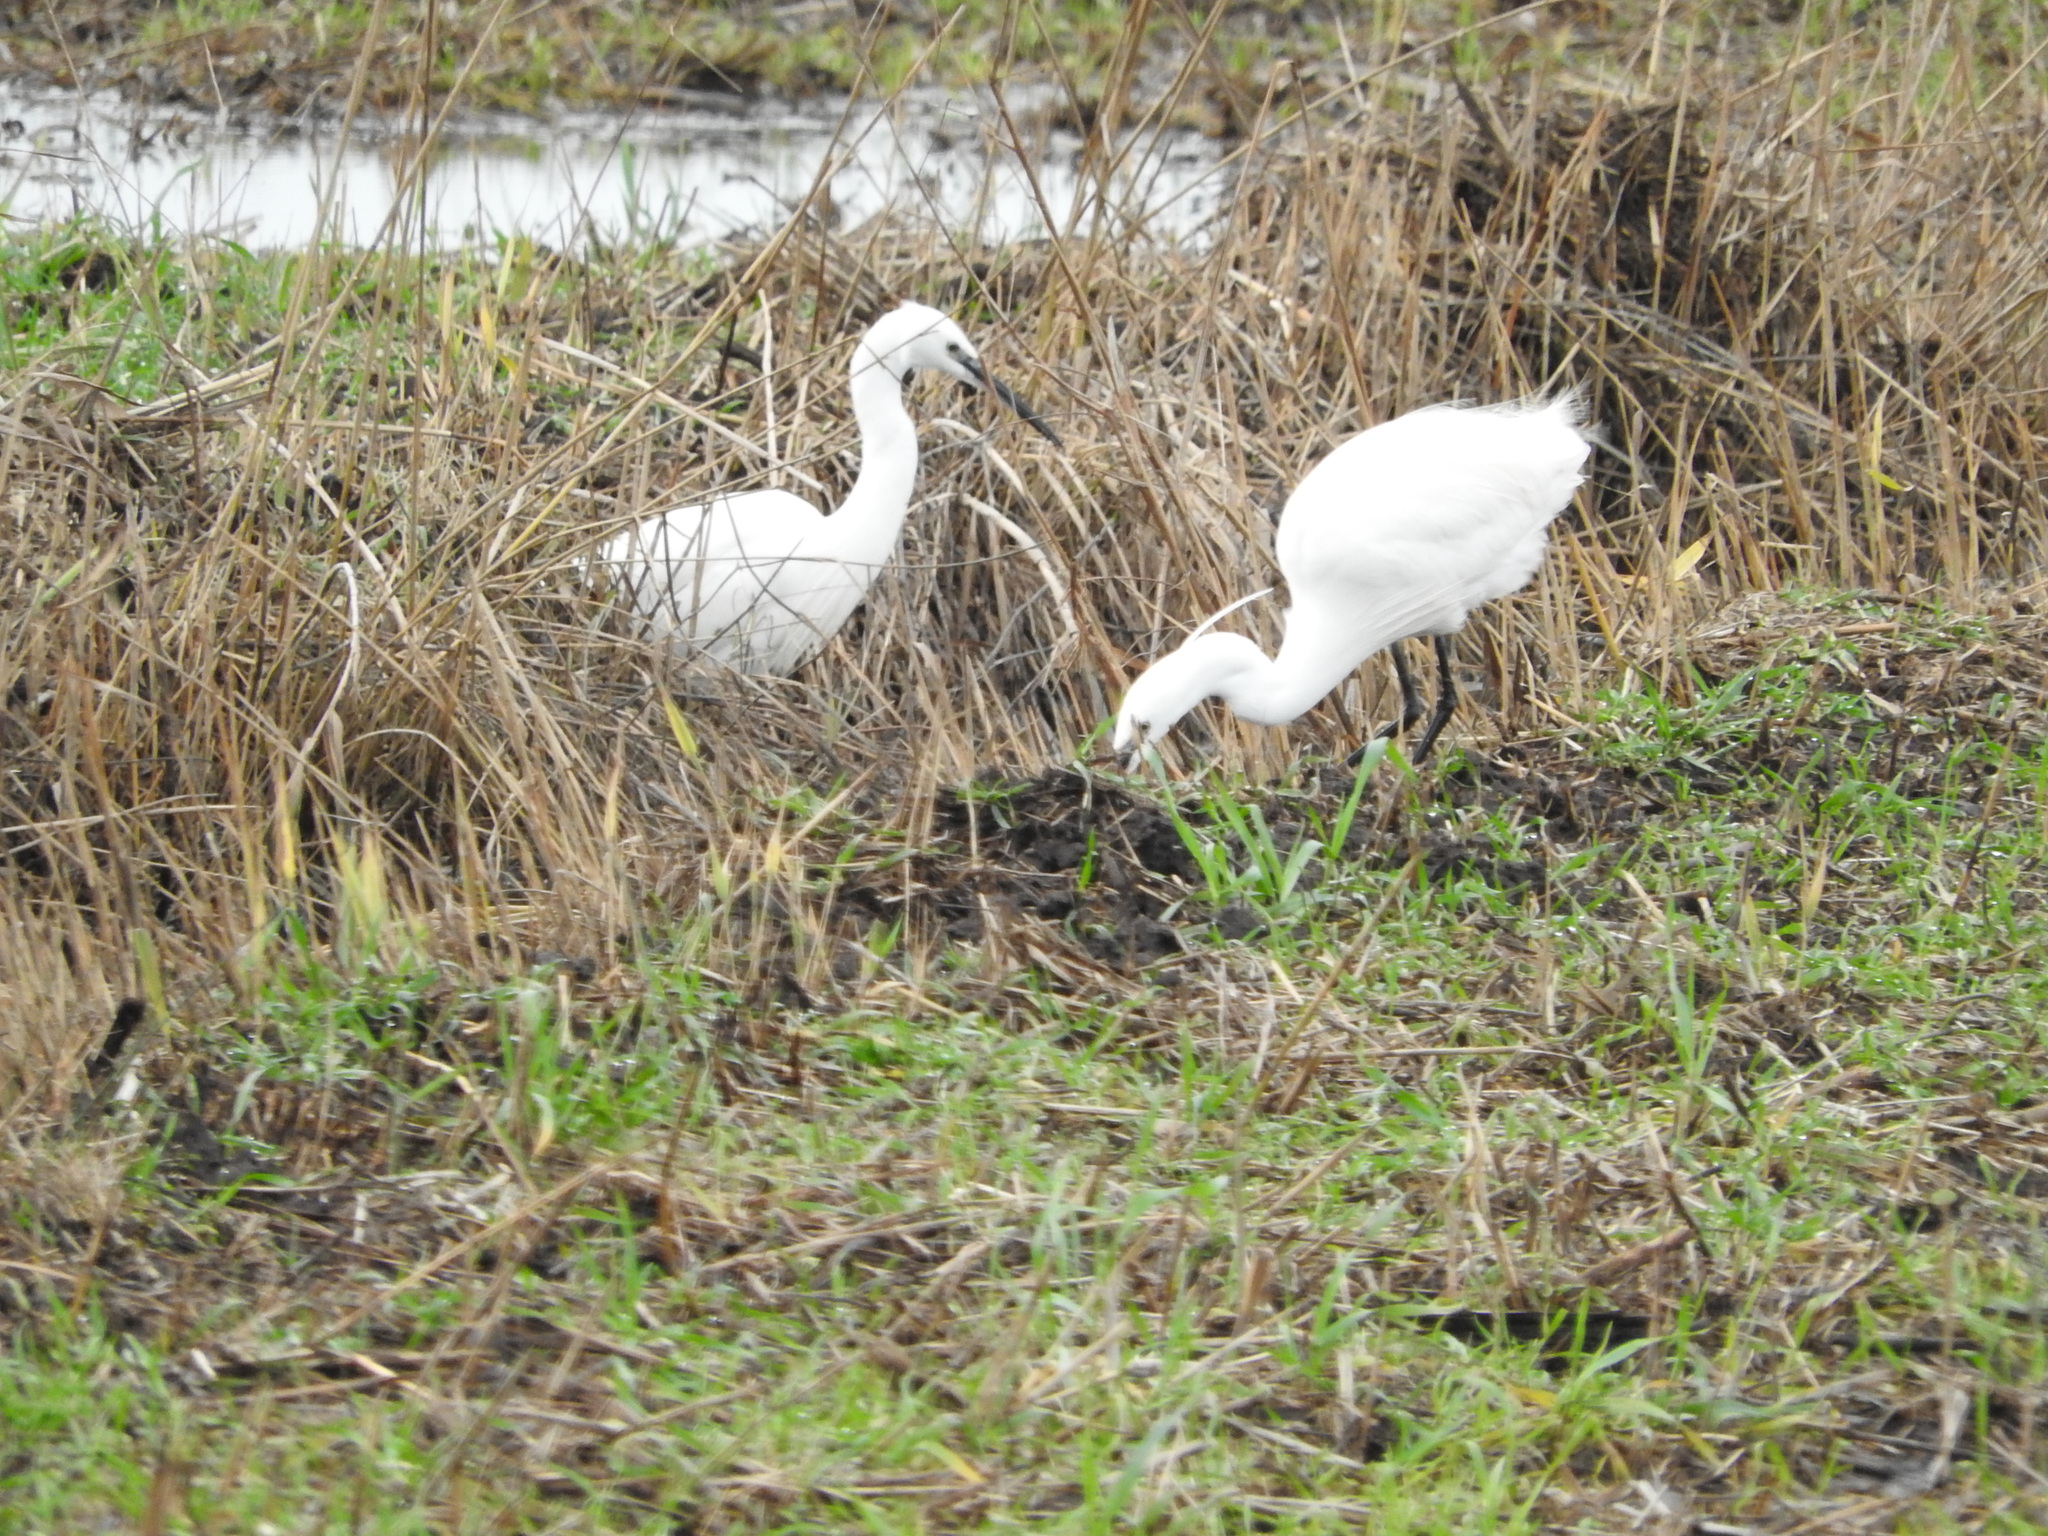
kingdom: Animalia
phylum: Chordata
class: Aves
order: Pelecaniformes
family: Ardeidae
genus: Egretta
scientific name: Egretta garzetta
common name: Little egret
